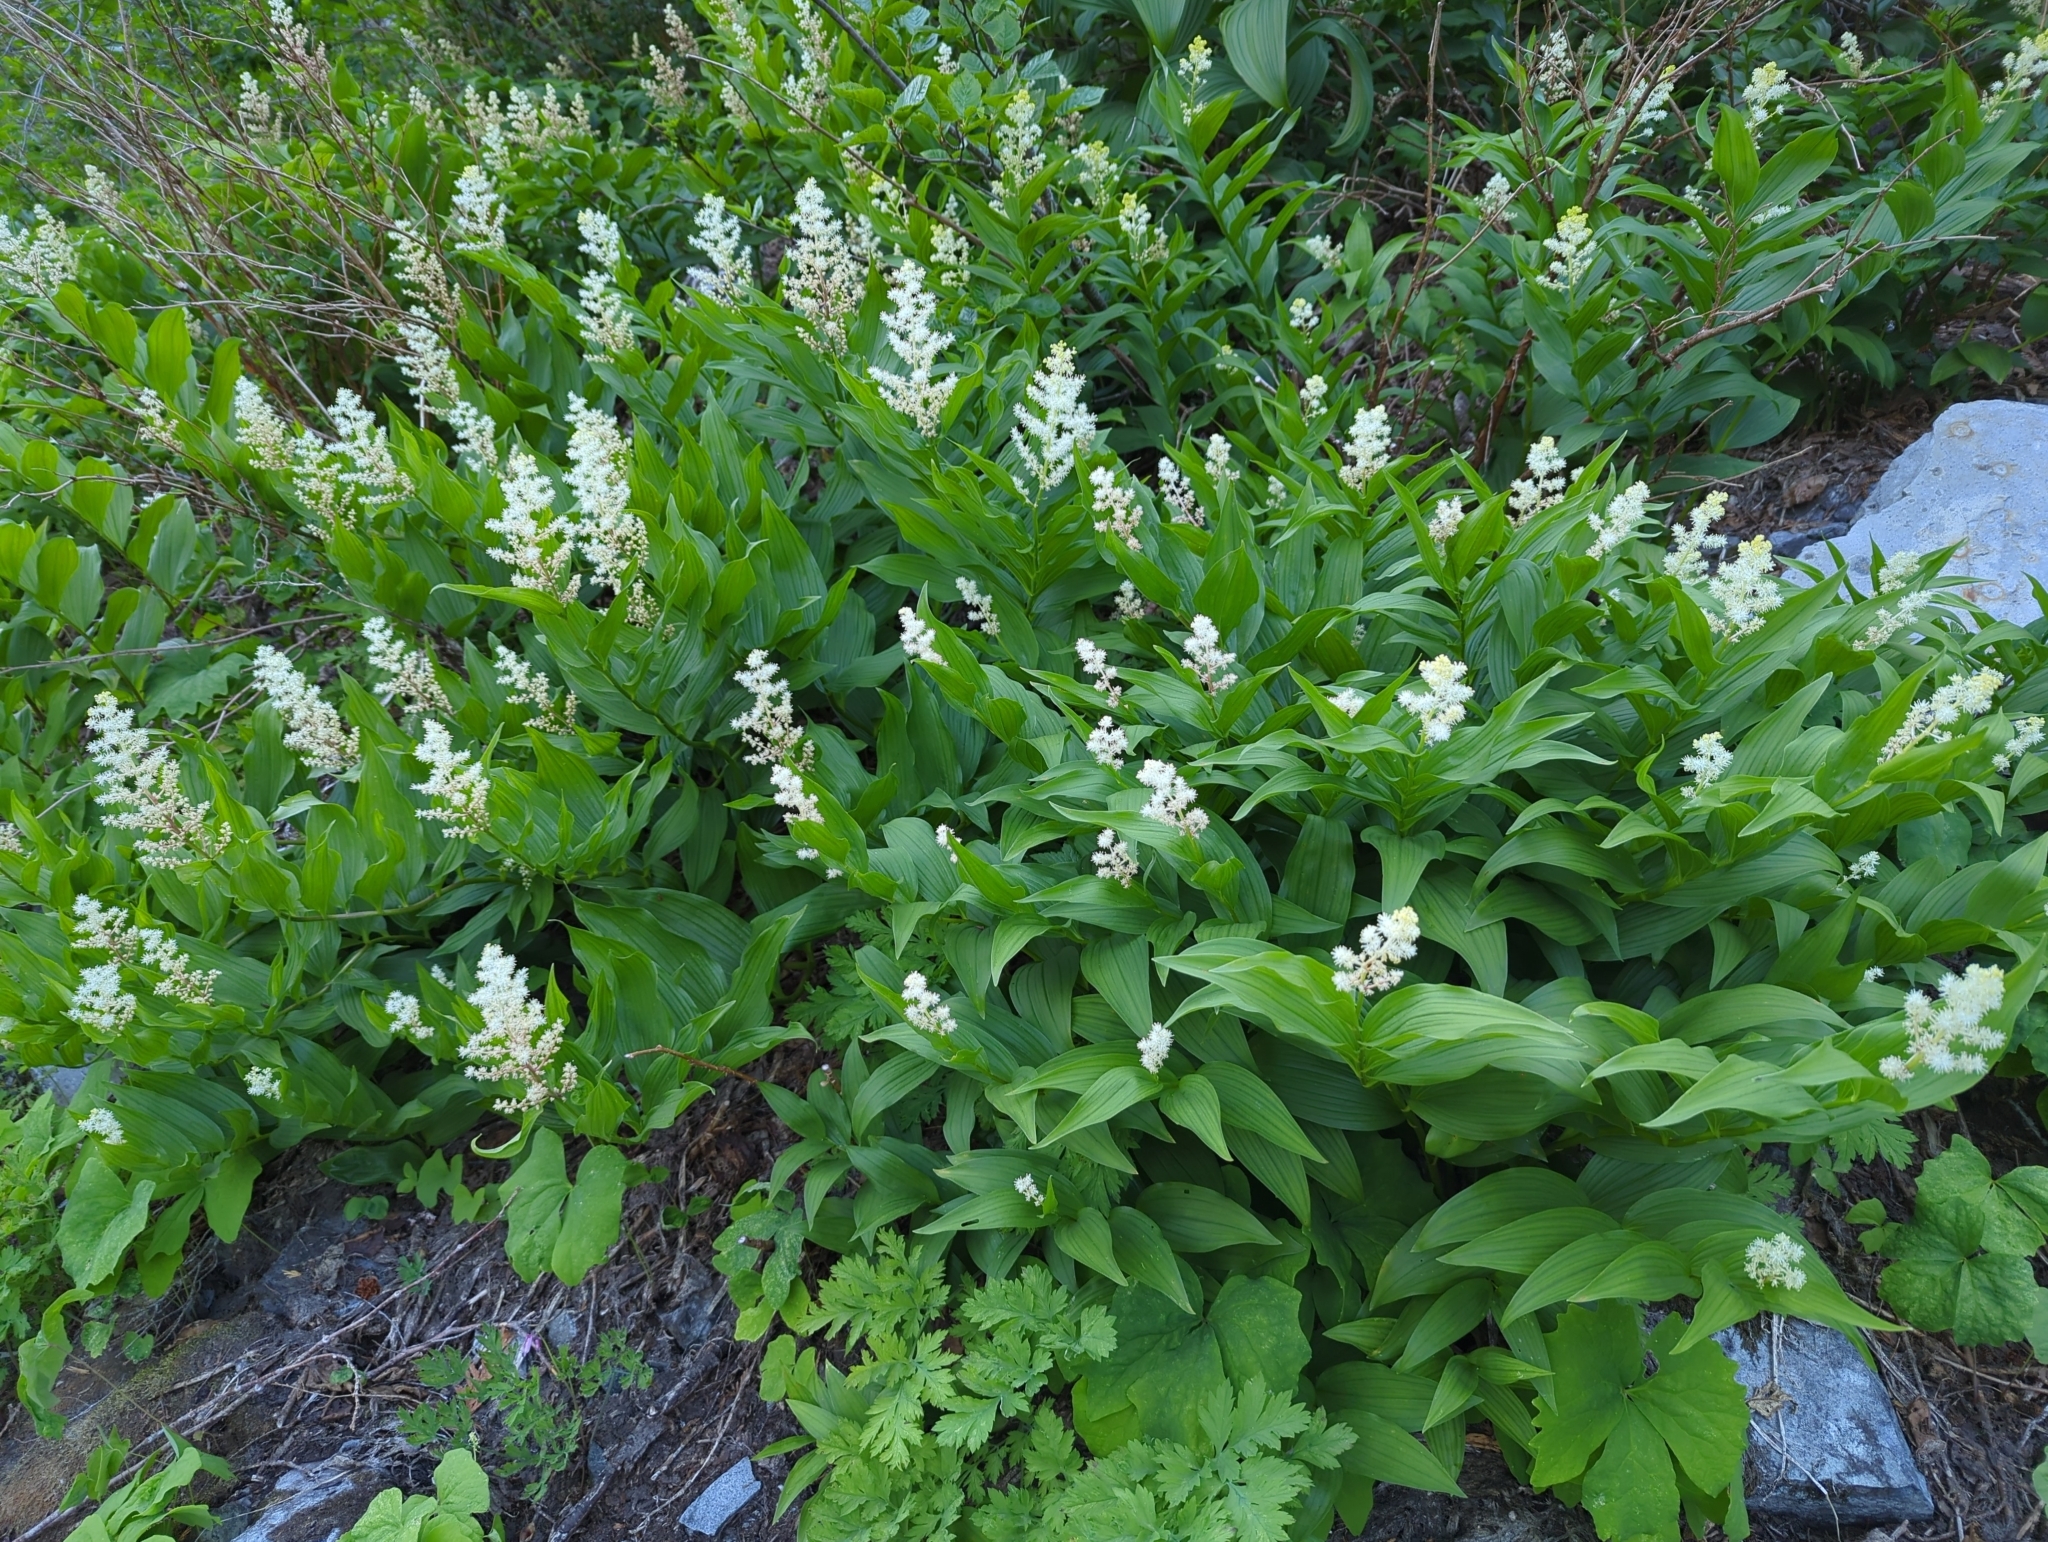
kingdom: Plantae
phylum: Tracheophyta
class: Liliopsida
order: Asparagales
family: Asparagaceae
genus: Maianthemum
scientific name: Maianthemum racemosum
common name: False spikenard
